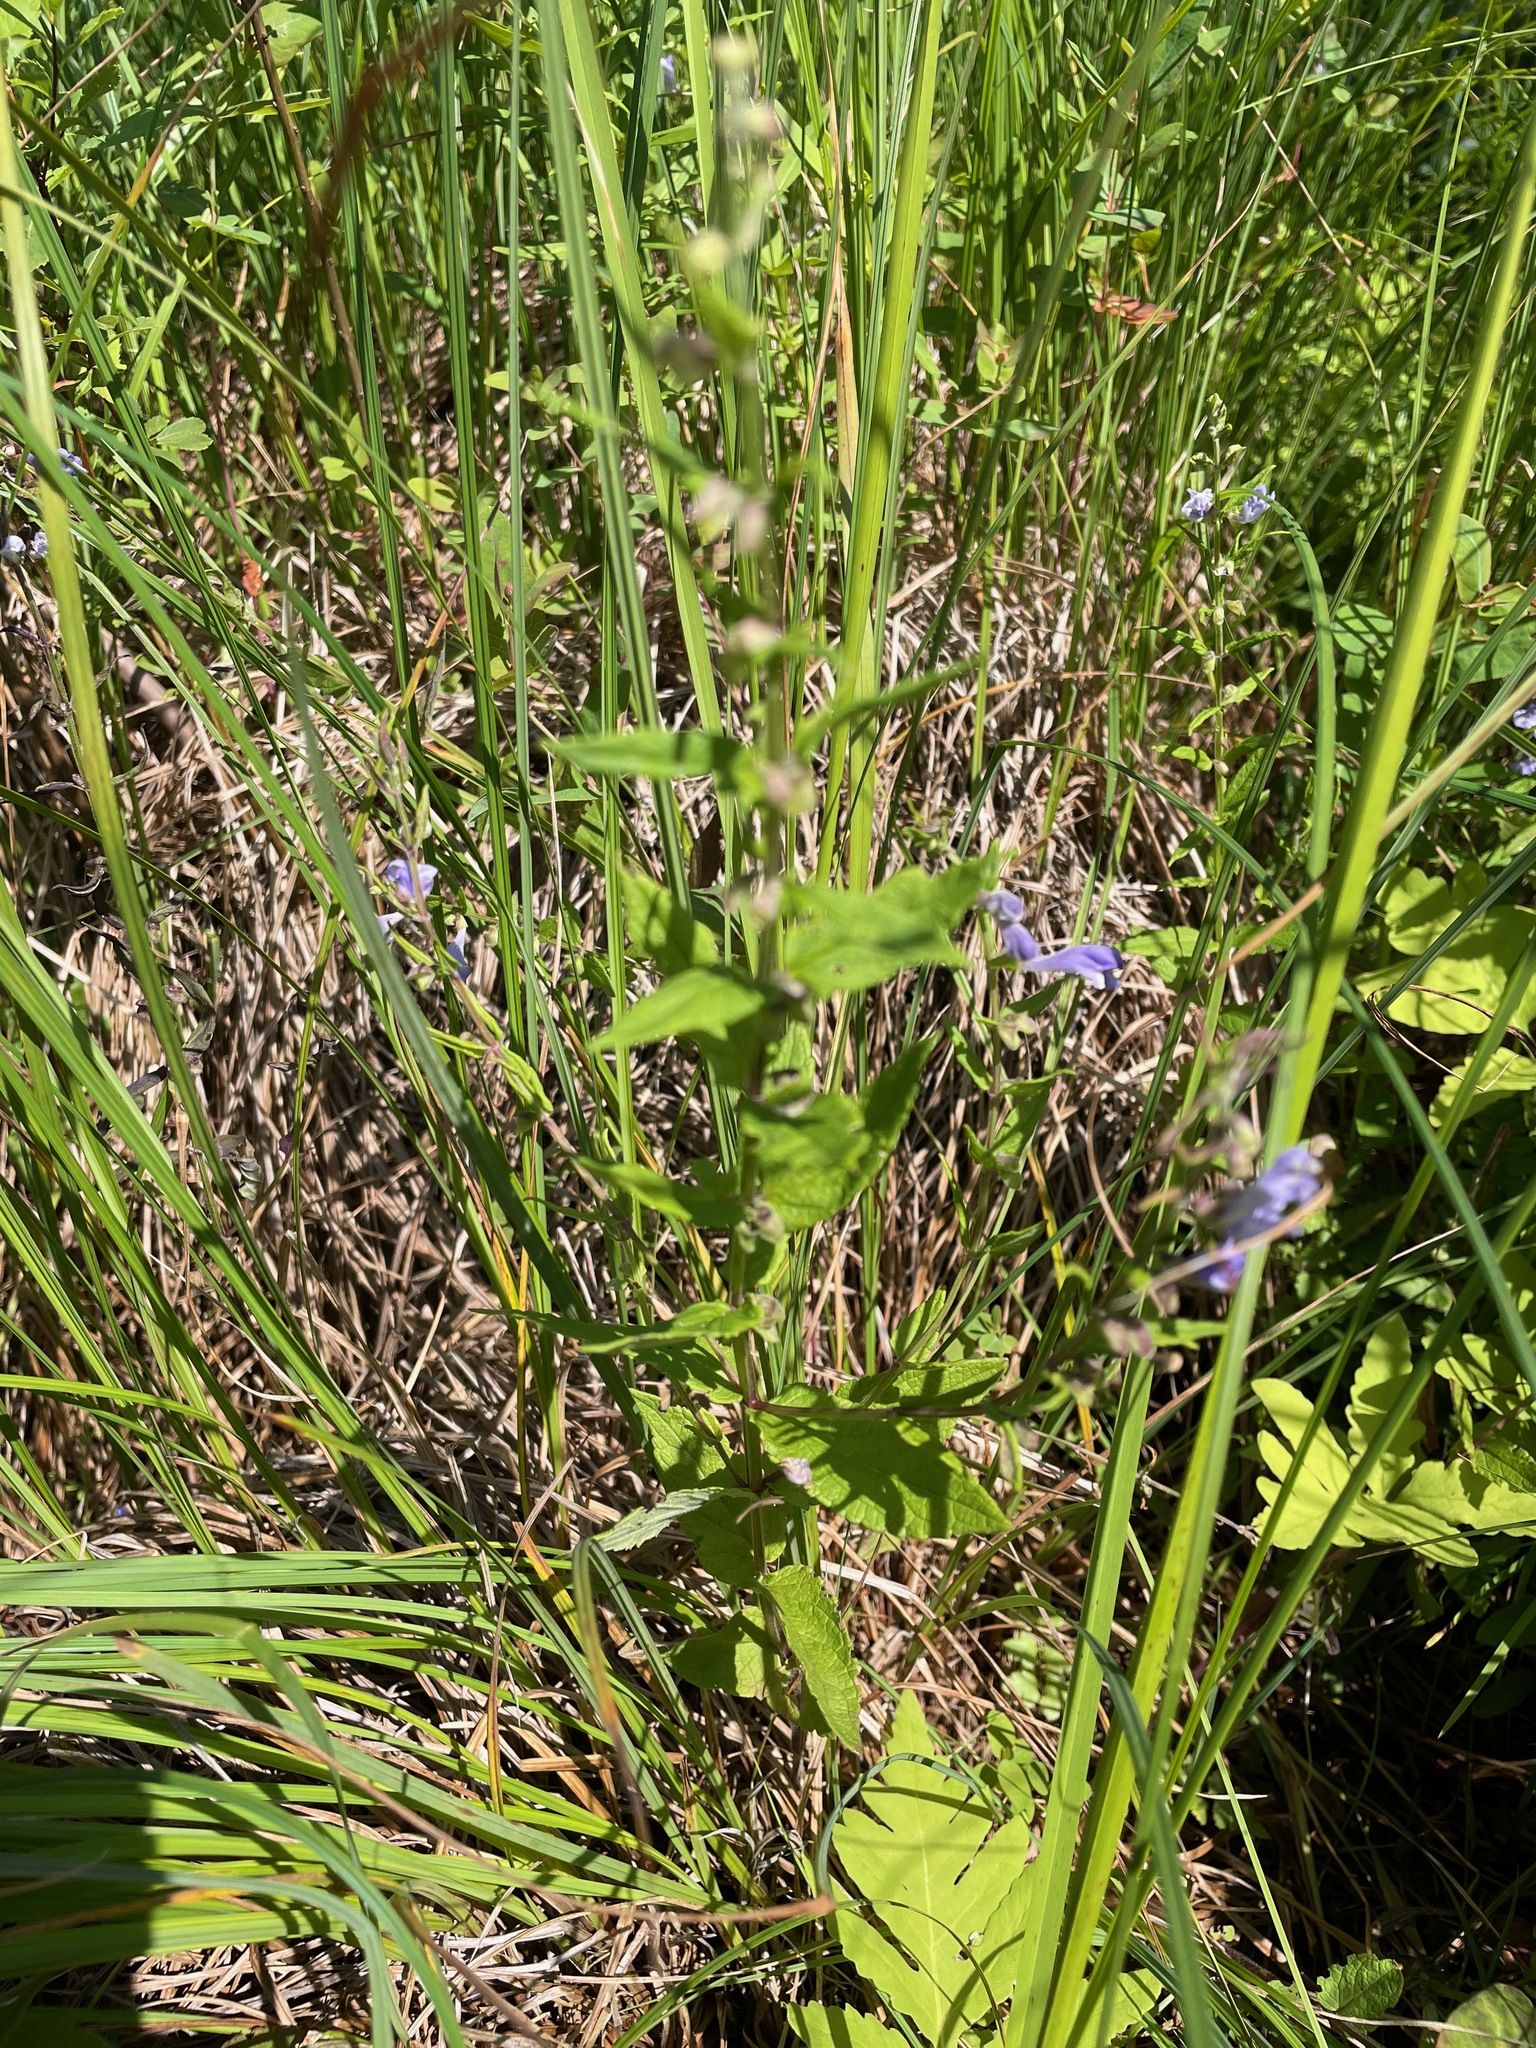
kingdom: Plantae
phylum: Tracheophyta
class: Magnoliopsida
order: Lamiales
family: Lamiaceae
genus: Scutellaria
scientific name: Scutellaria galericulata
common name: Skullcap
